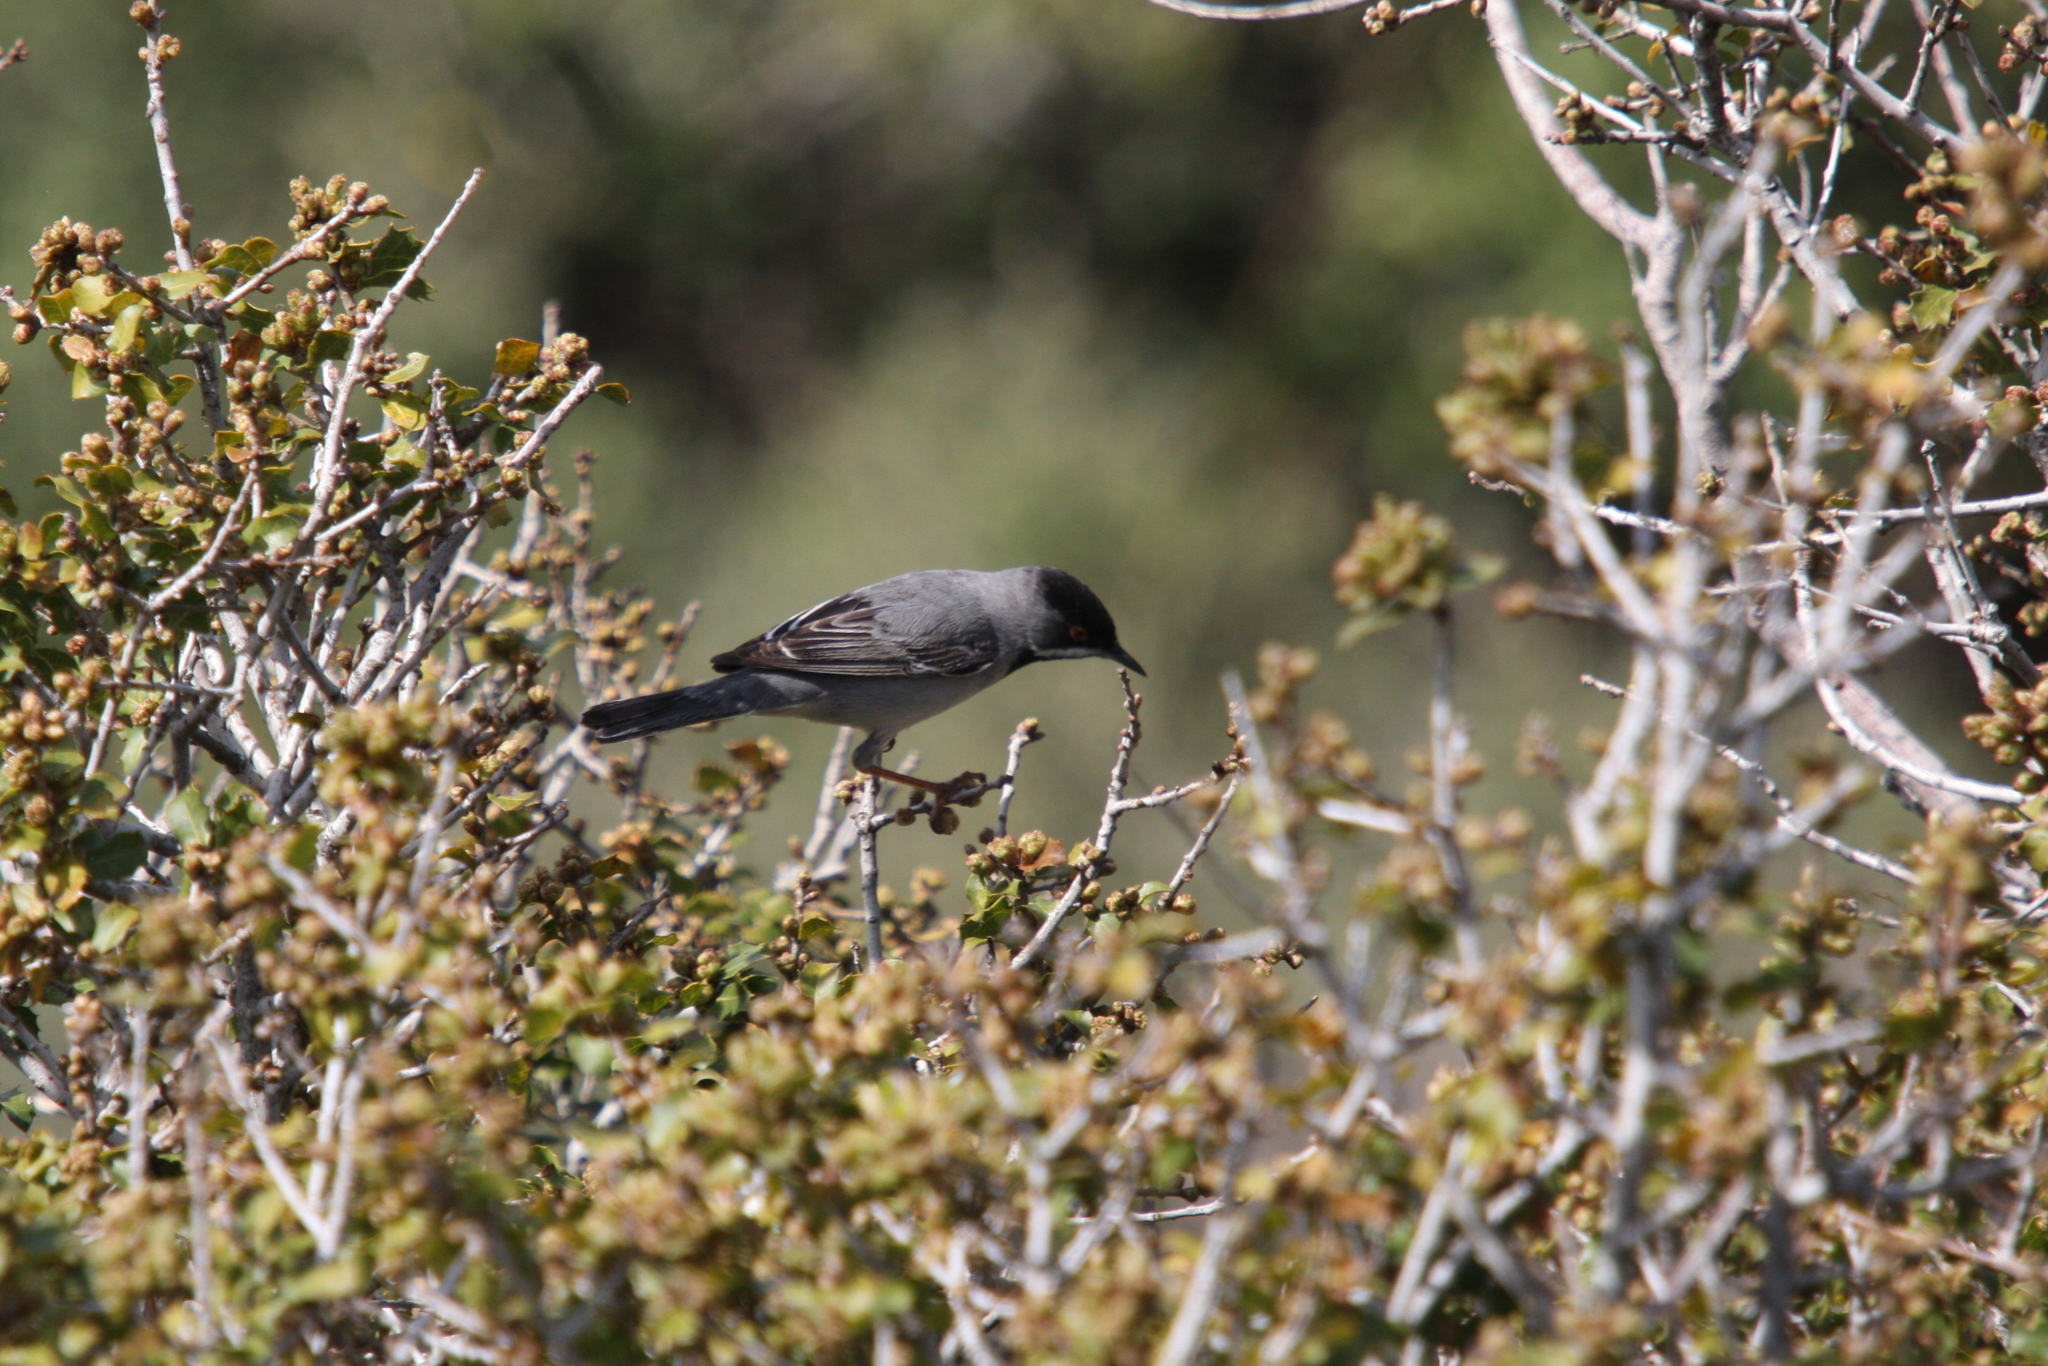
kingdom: Animalia
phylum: Chordata
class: Aves
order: Passeriformes
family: Sylviidae
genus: Sylvia
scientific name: Sylvia ruppeli
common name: Rüppell's warbler
